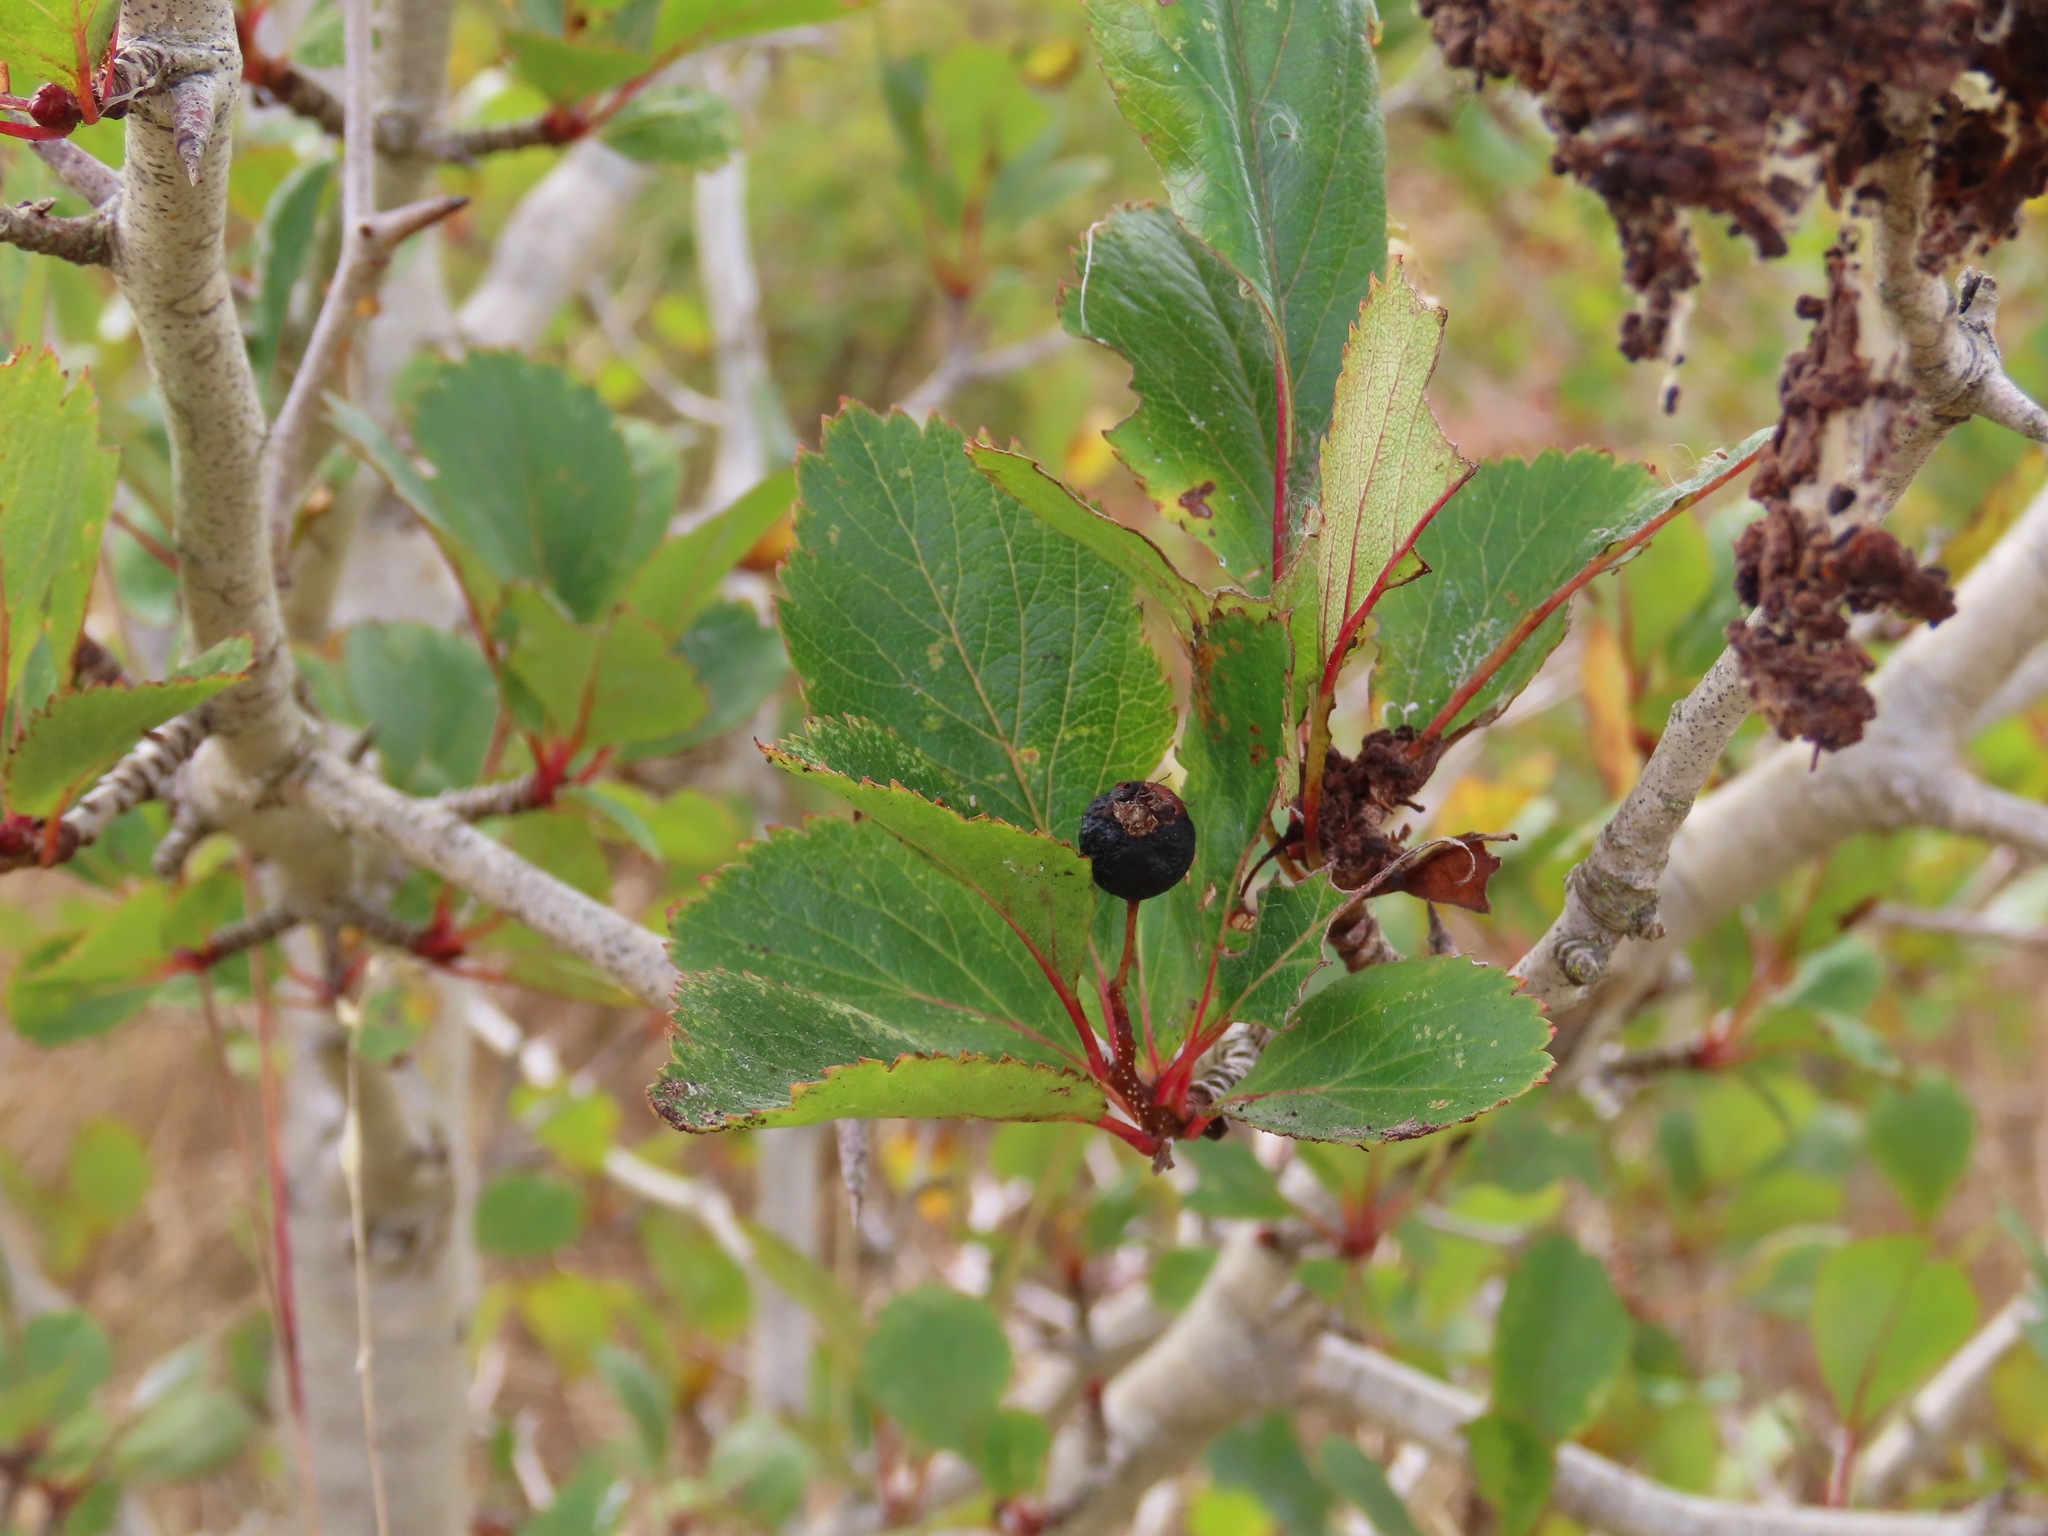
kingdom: Plantae
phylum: Tracheophyta
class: Magnoliopsida
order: Rosales
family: Rosaceae
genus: Crataegus
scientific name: Crataegus douglasii
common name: Black hawthorn
